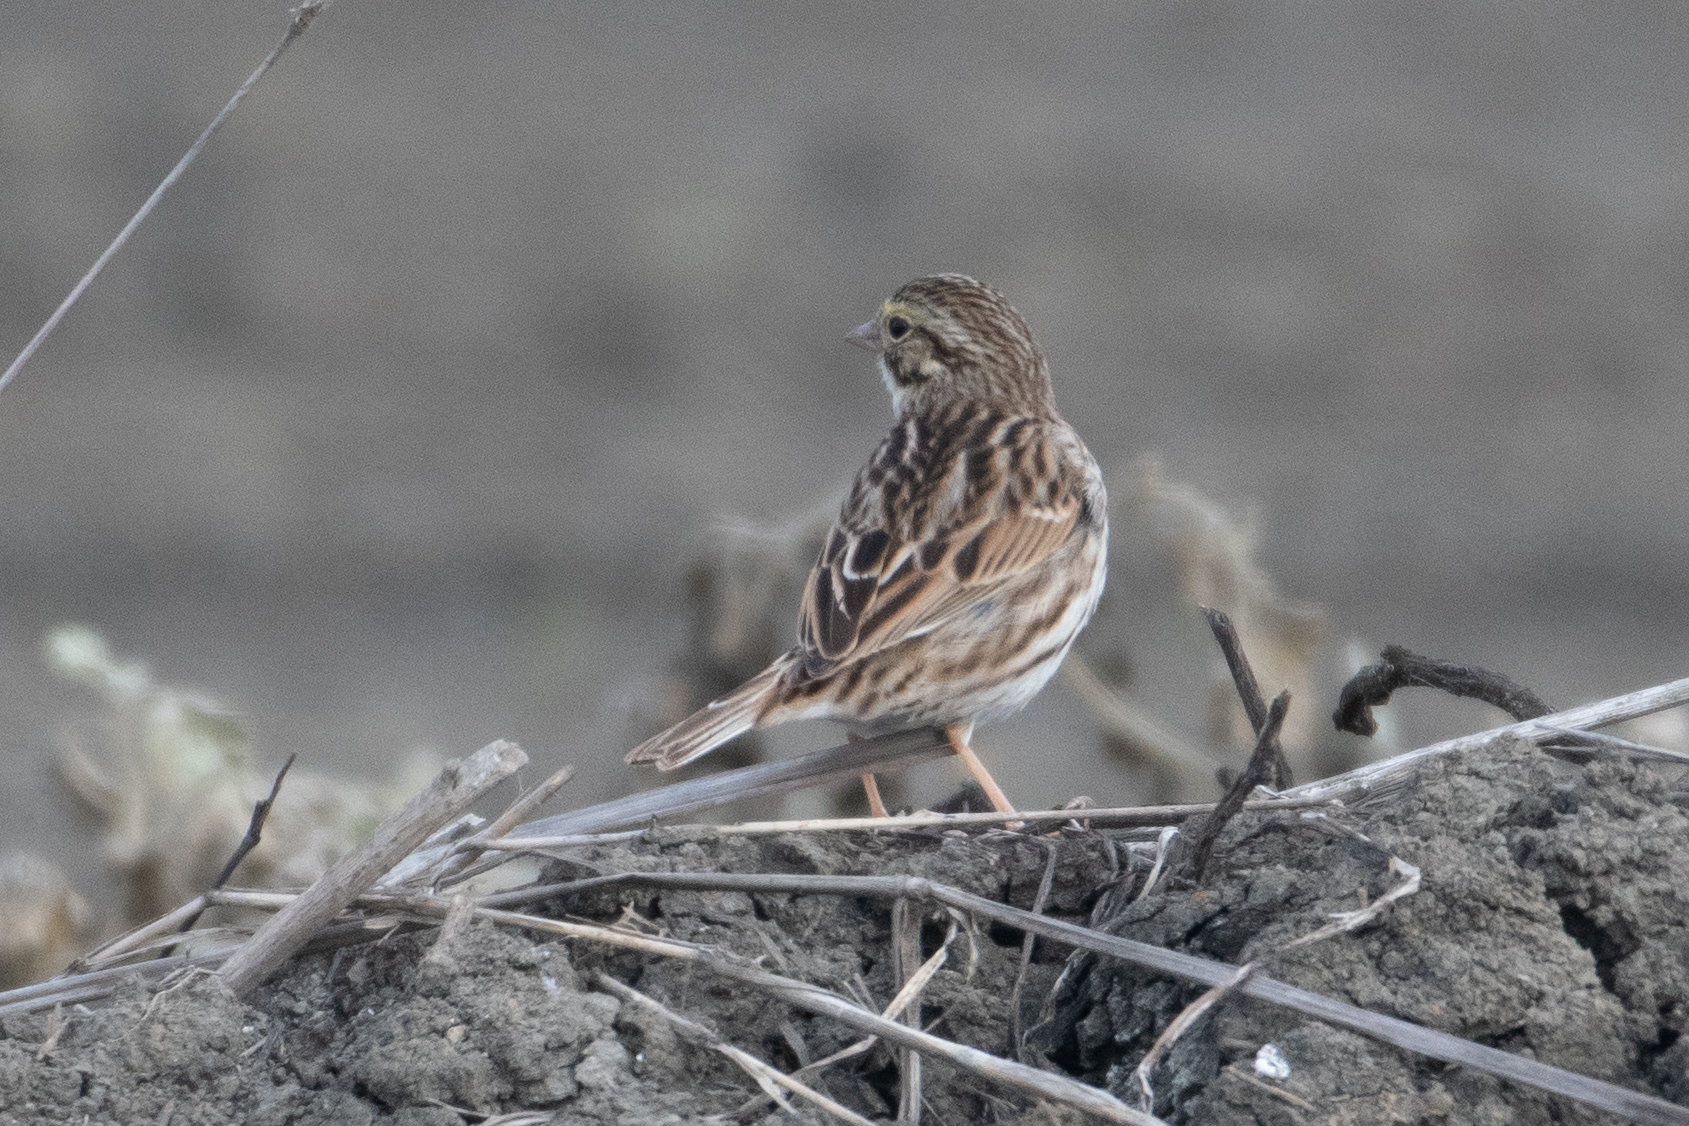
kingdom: Animalia
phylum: Chordata
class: Aves
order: Passeriformes
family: Passerellidae
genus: Passerculus
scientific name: Passerculus sandwichensis
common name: Savannah sparrow
